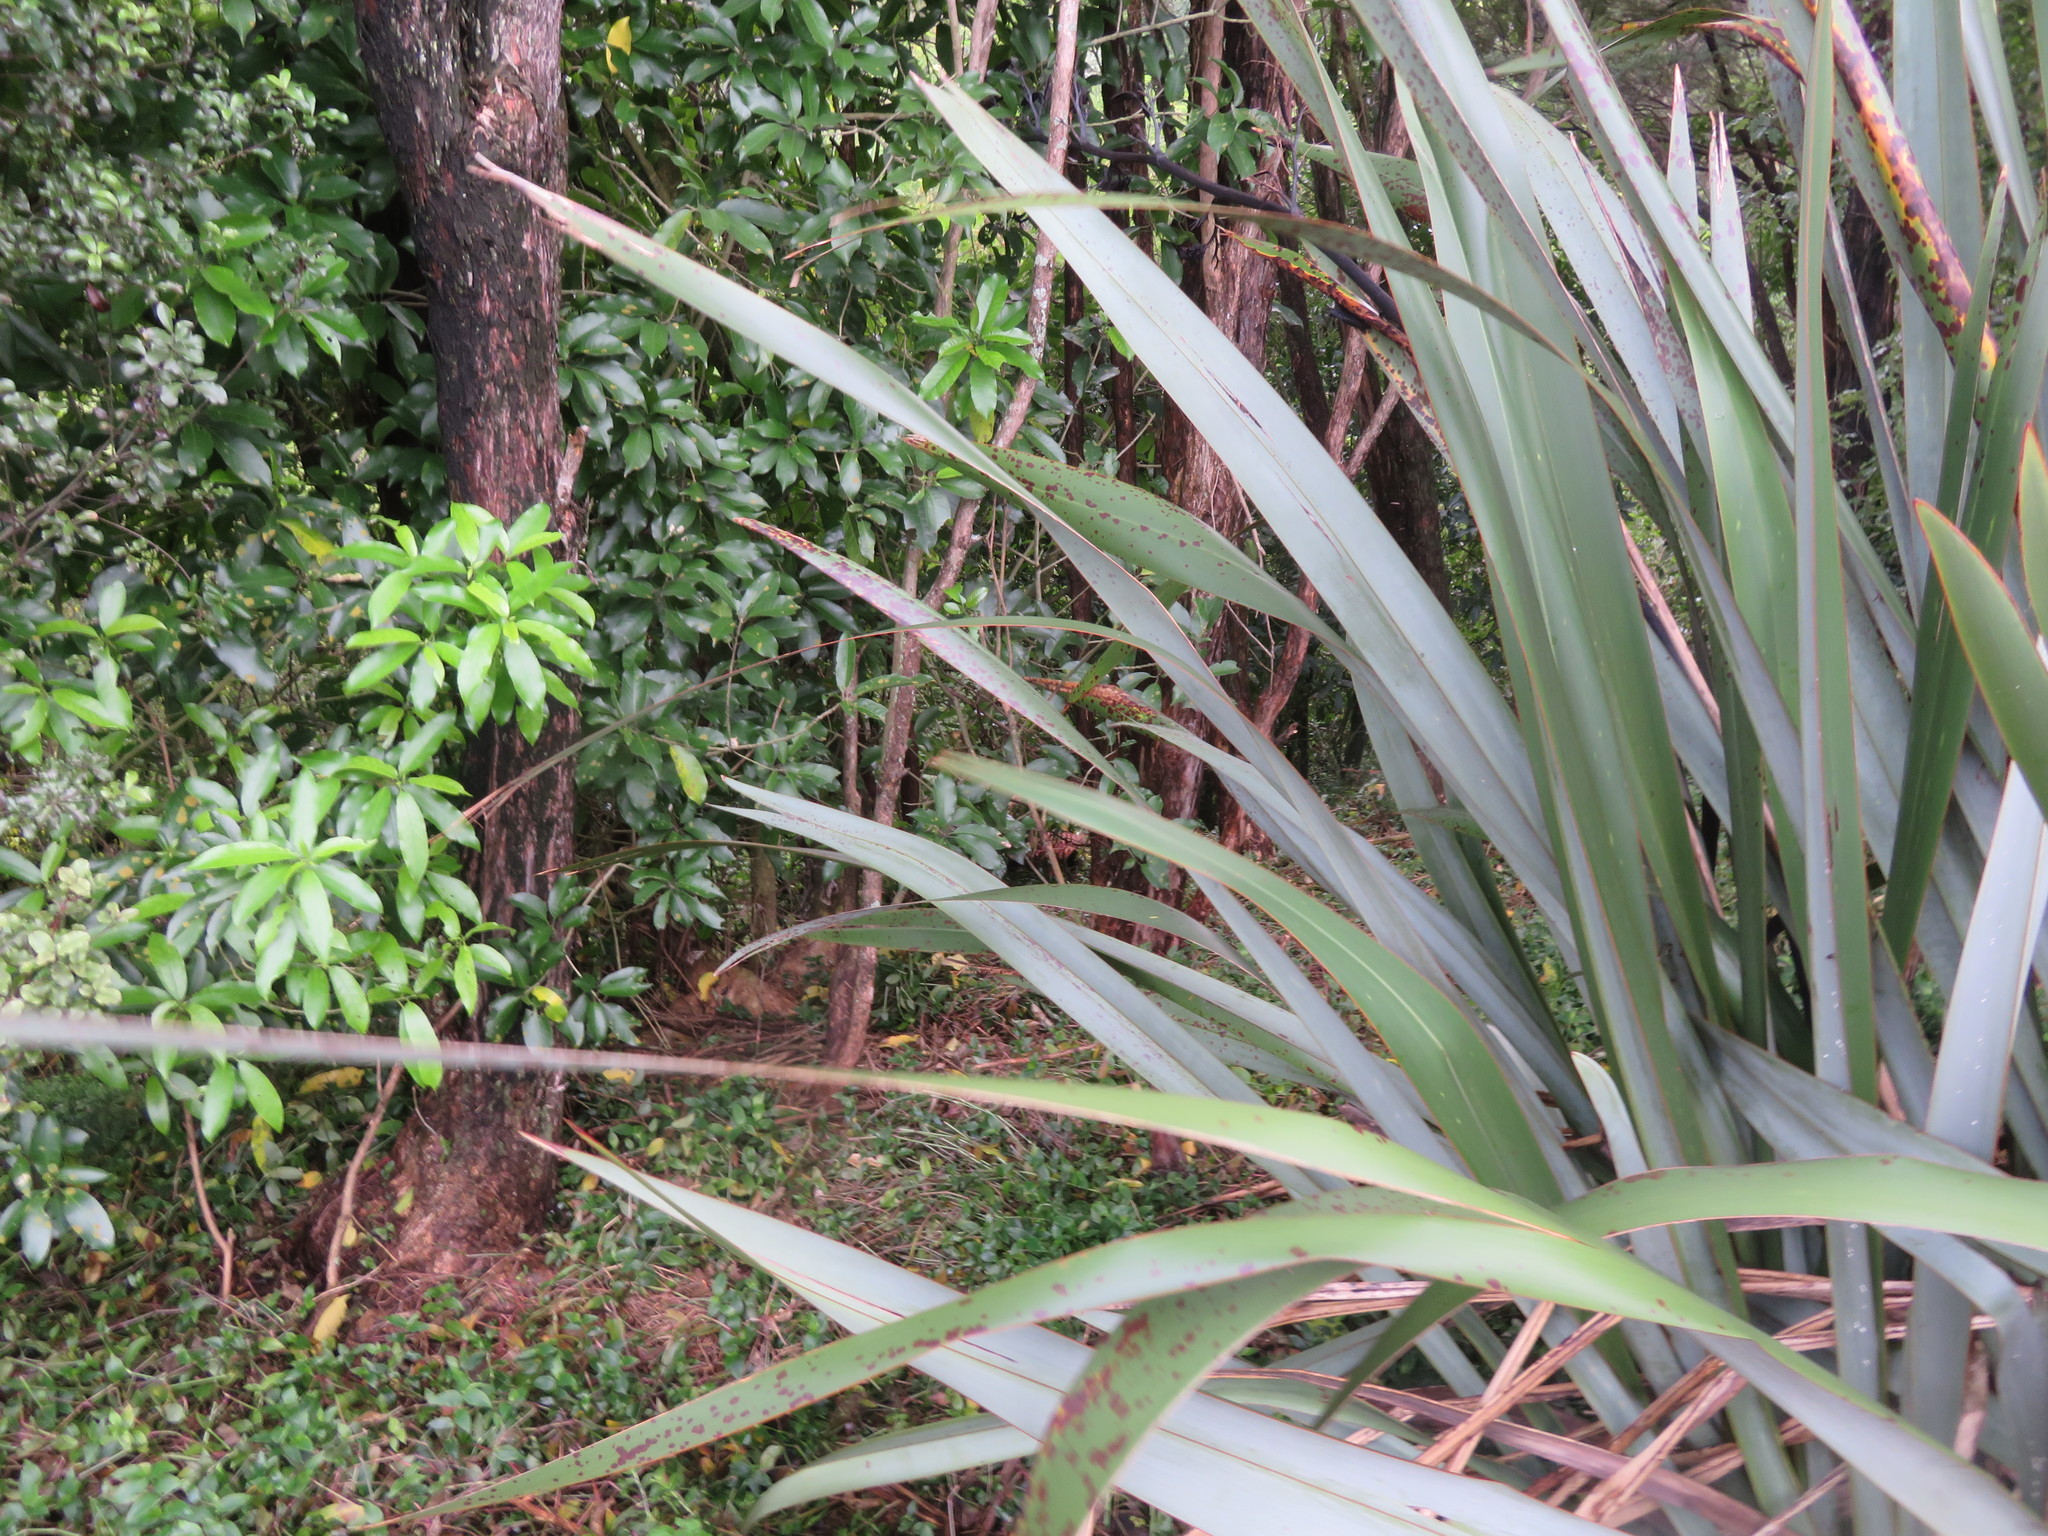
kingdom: Plantae
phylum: Tracheophyta
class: Magnoliopsida
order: Malpighiales
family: Violaceae
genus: Melicytus
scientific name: Melicytus ramiflorus
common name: Mahoe
